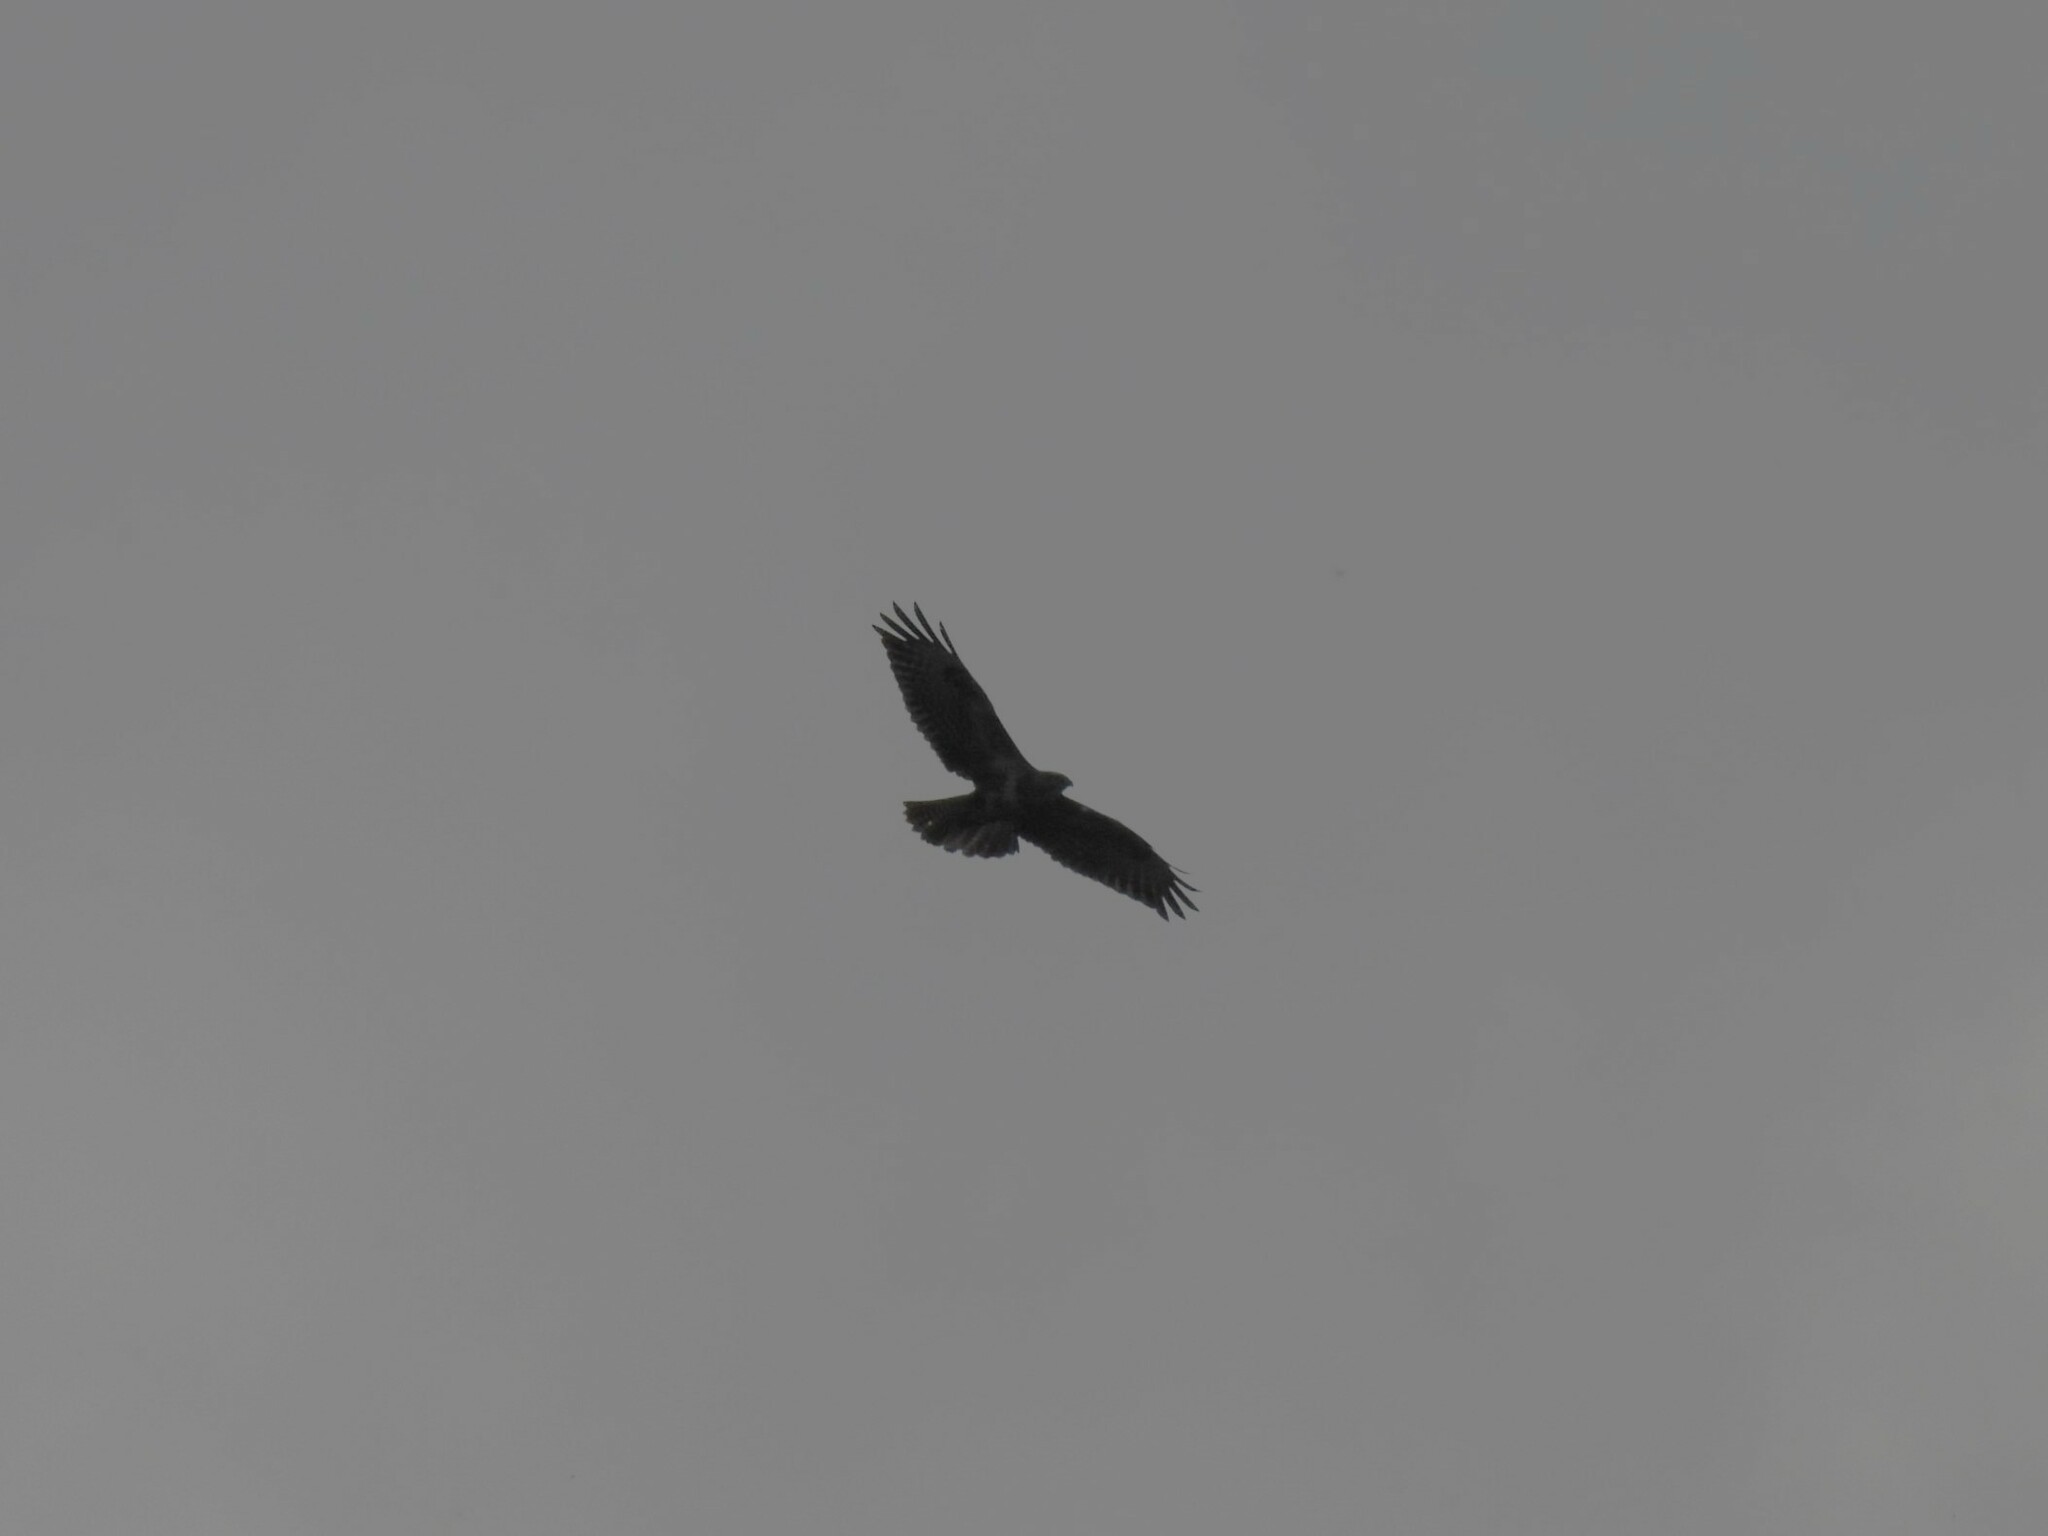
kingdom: Animalia
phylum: Chordata
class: Aves
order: Accipitriformes
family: Accipitridae
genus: Buteo
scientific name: Buteo buteo
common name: Common buzzard
